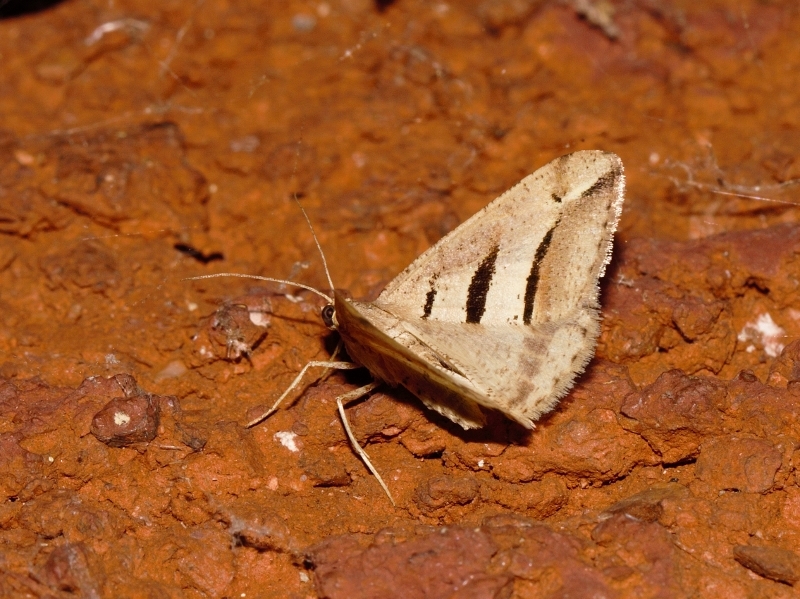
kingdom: Animalia
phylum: Arthropoda
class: Insecta
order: Lepidoptera
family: Geometridae
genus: Chiasmia
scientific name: Chiasmia observata
